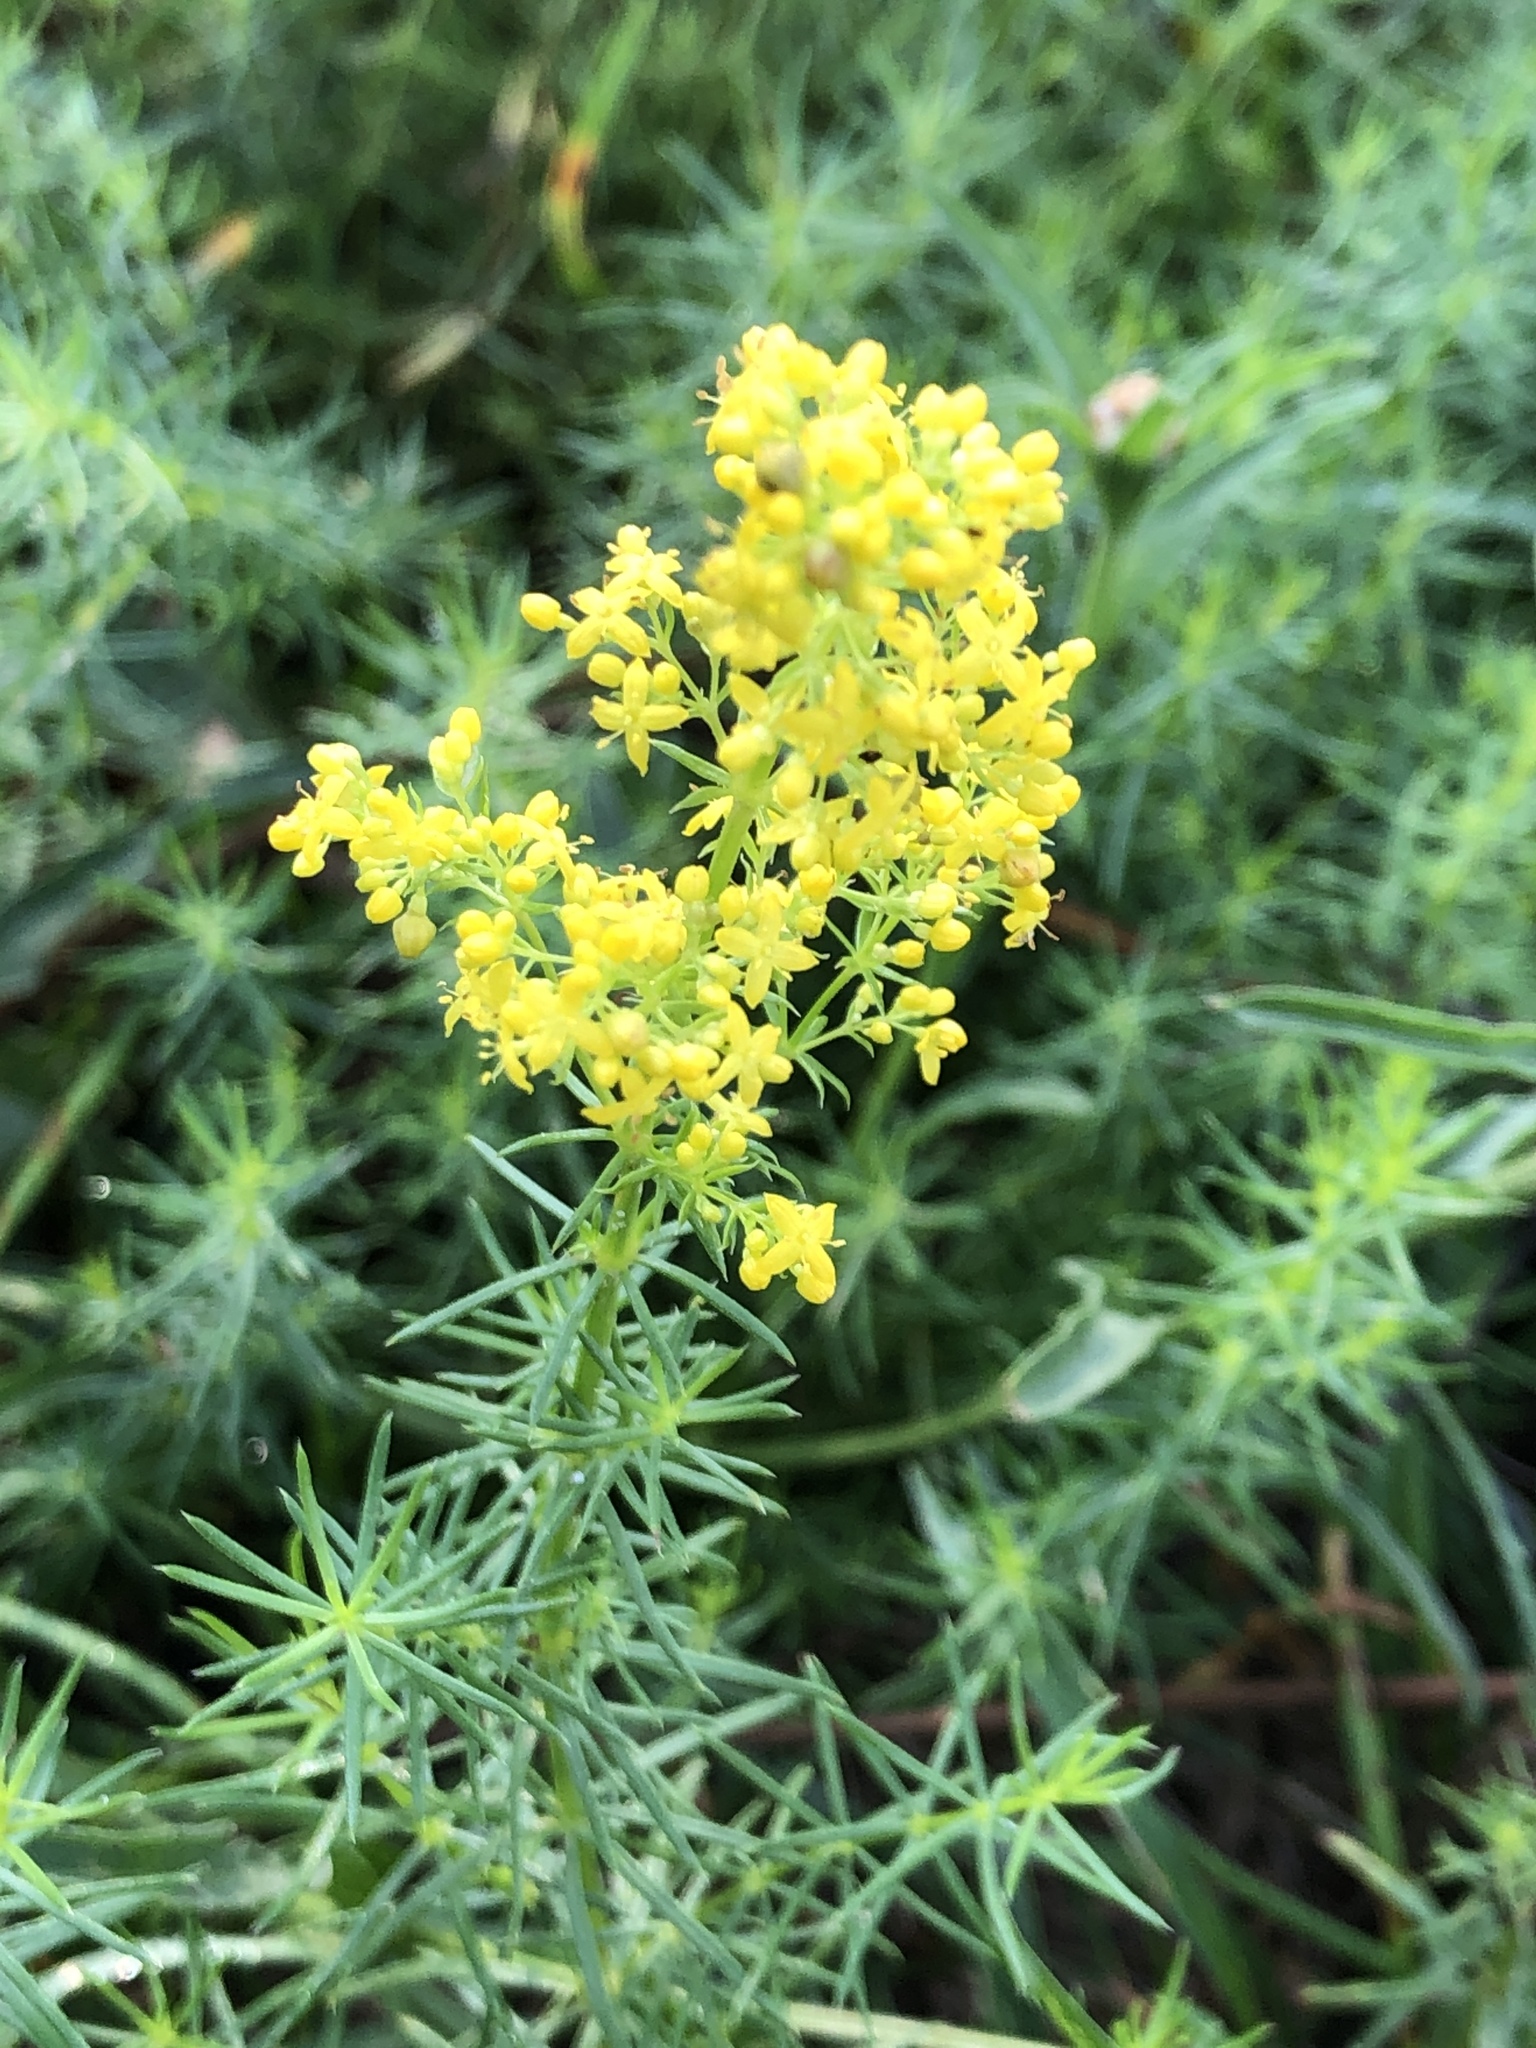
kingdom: Plantae
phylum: Tracheophyta
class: Magnoliopsida
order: Gentianales
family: Rubiaceae
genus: Galium
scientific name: Galium verum
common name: Lady's bedstraw
